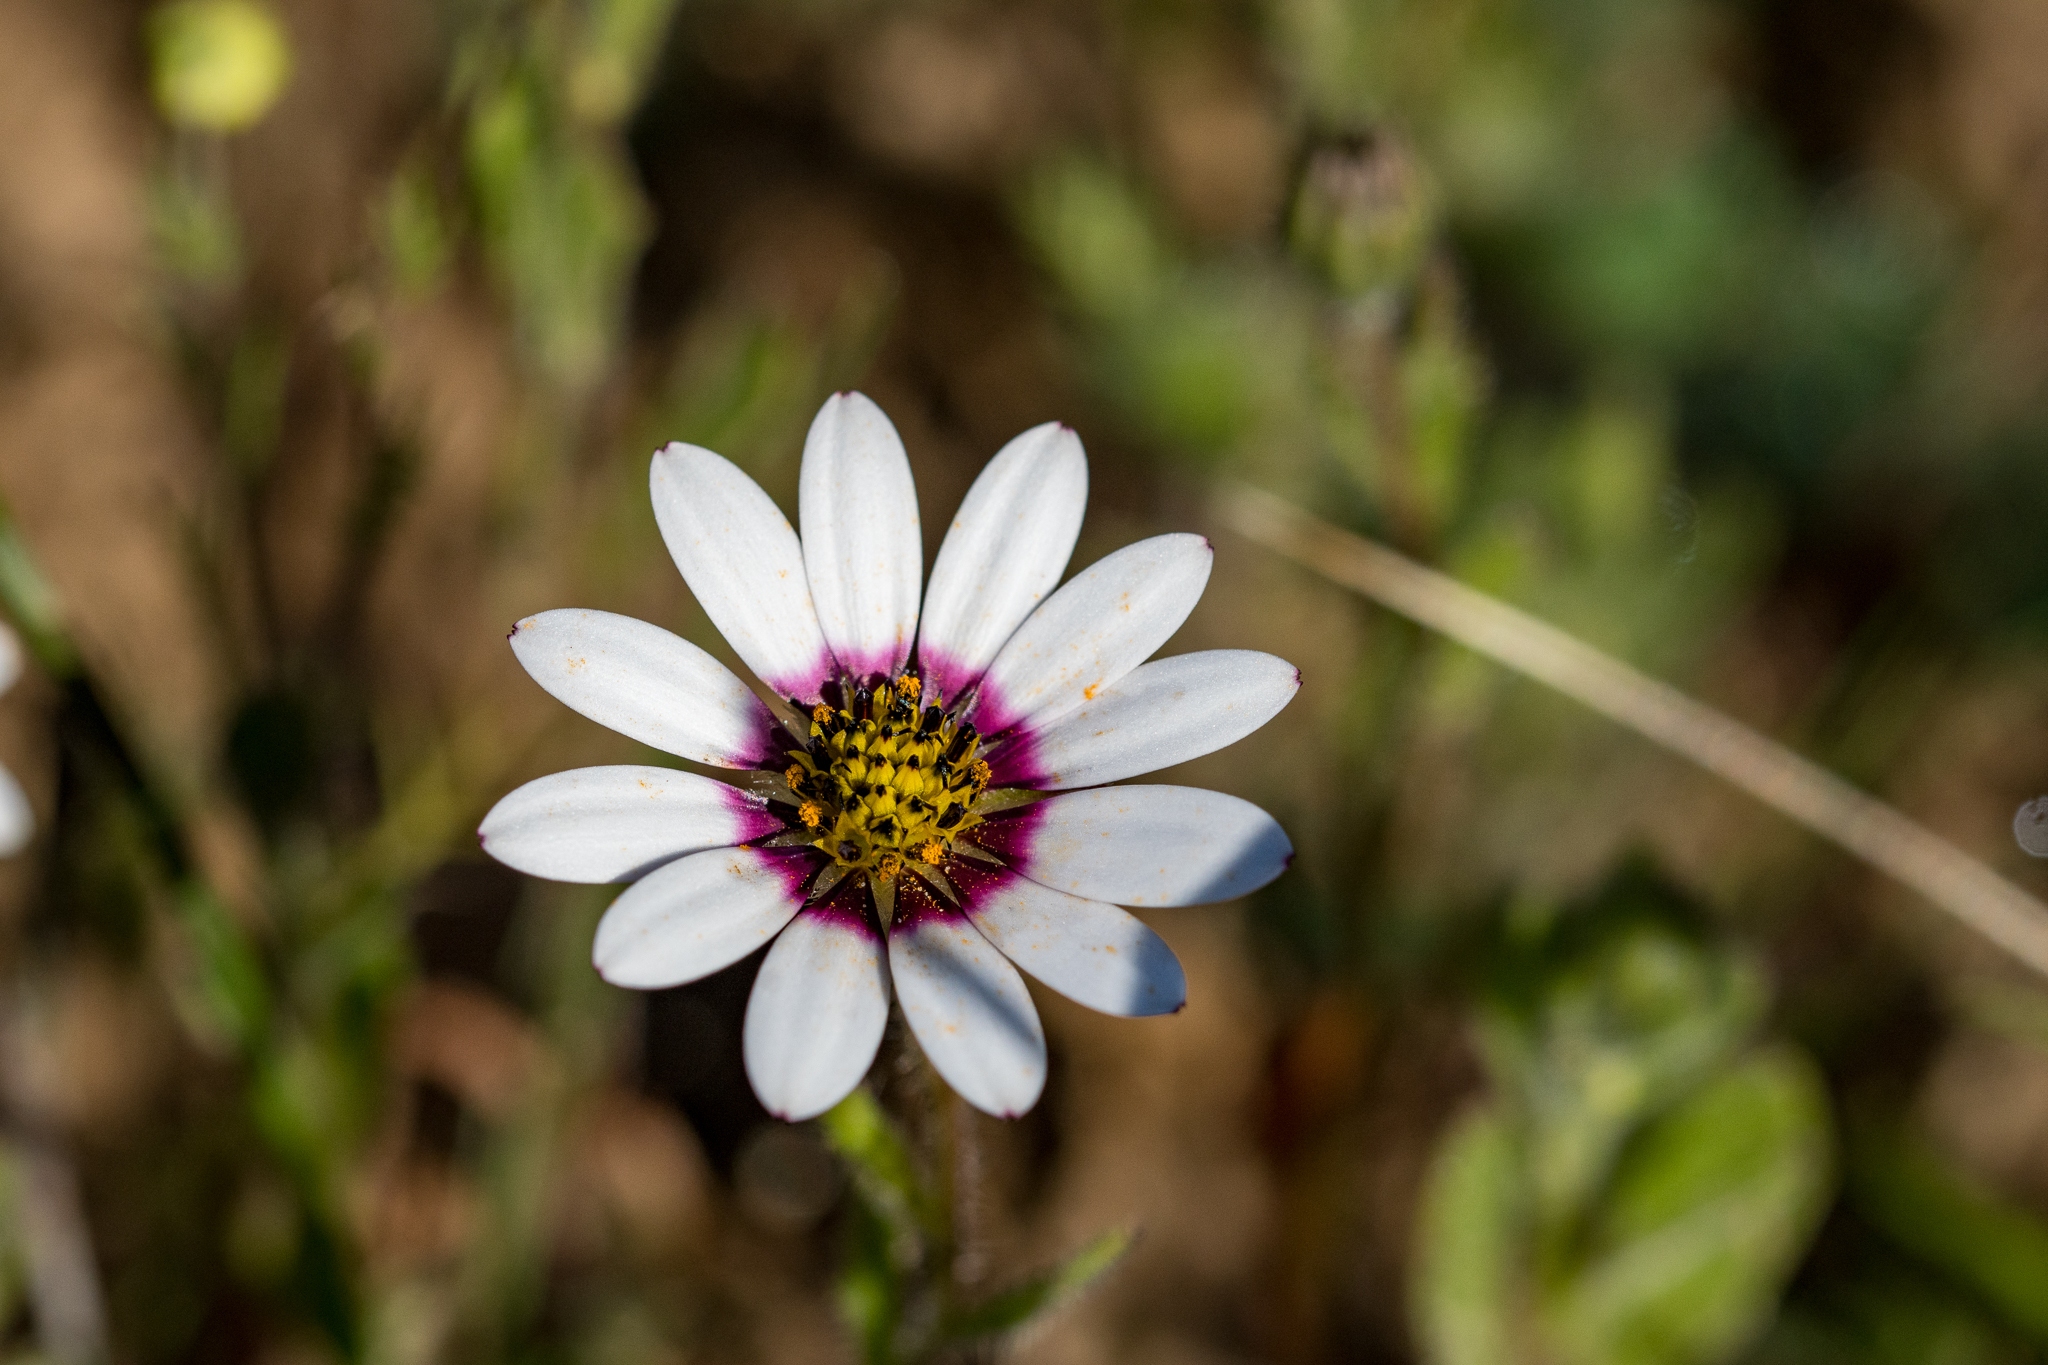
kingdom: Plantae
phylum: Tracheophyta
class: Magnoliopsida
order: Asterales
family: Asteraceae
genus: Dimorphotheca
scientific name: Dimorphotheca pluvialis
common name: Weather prophet
